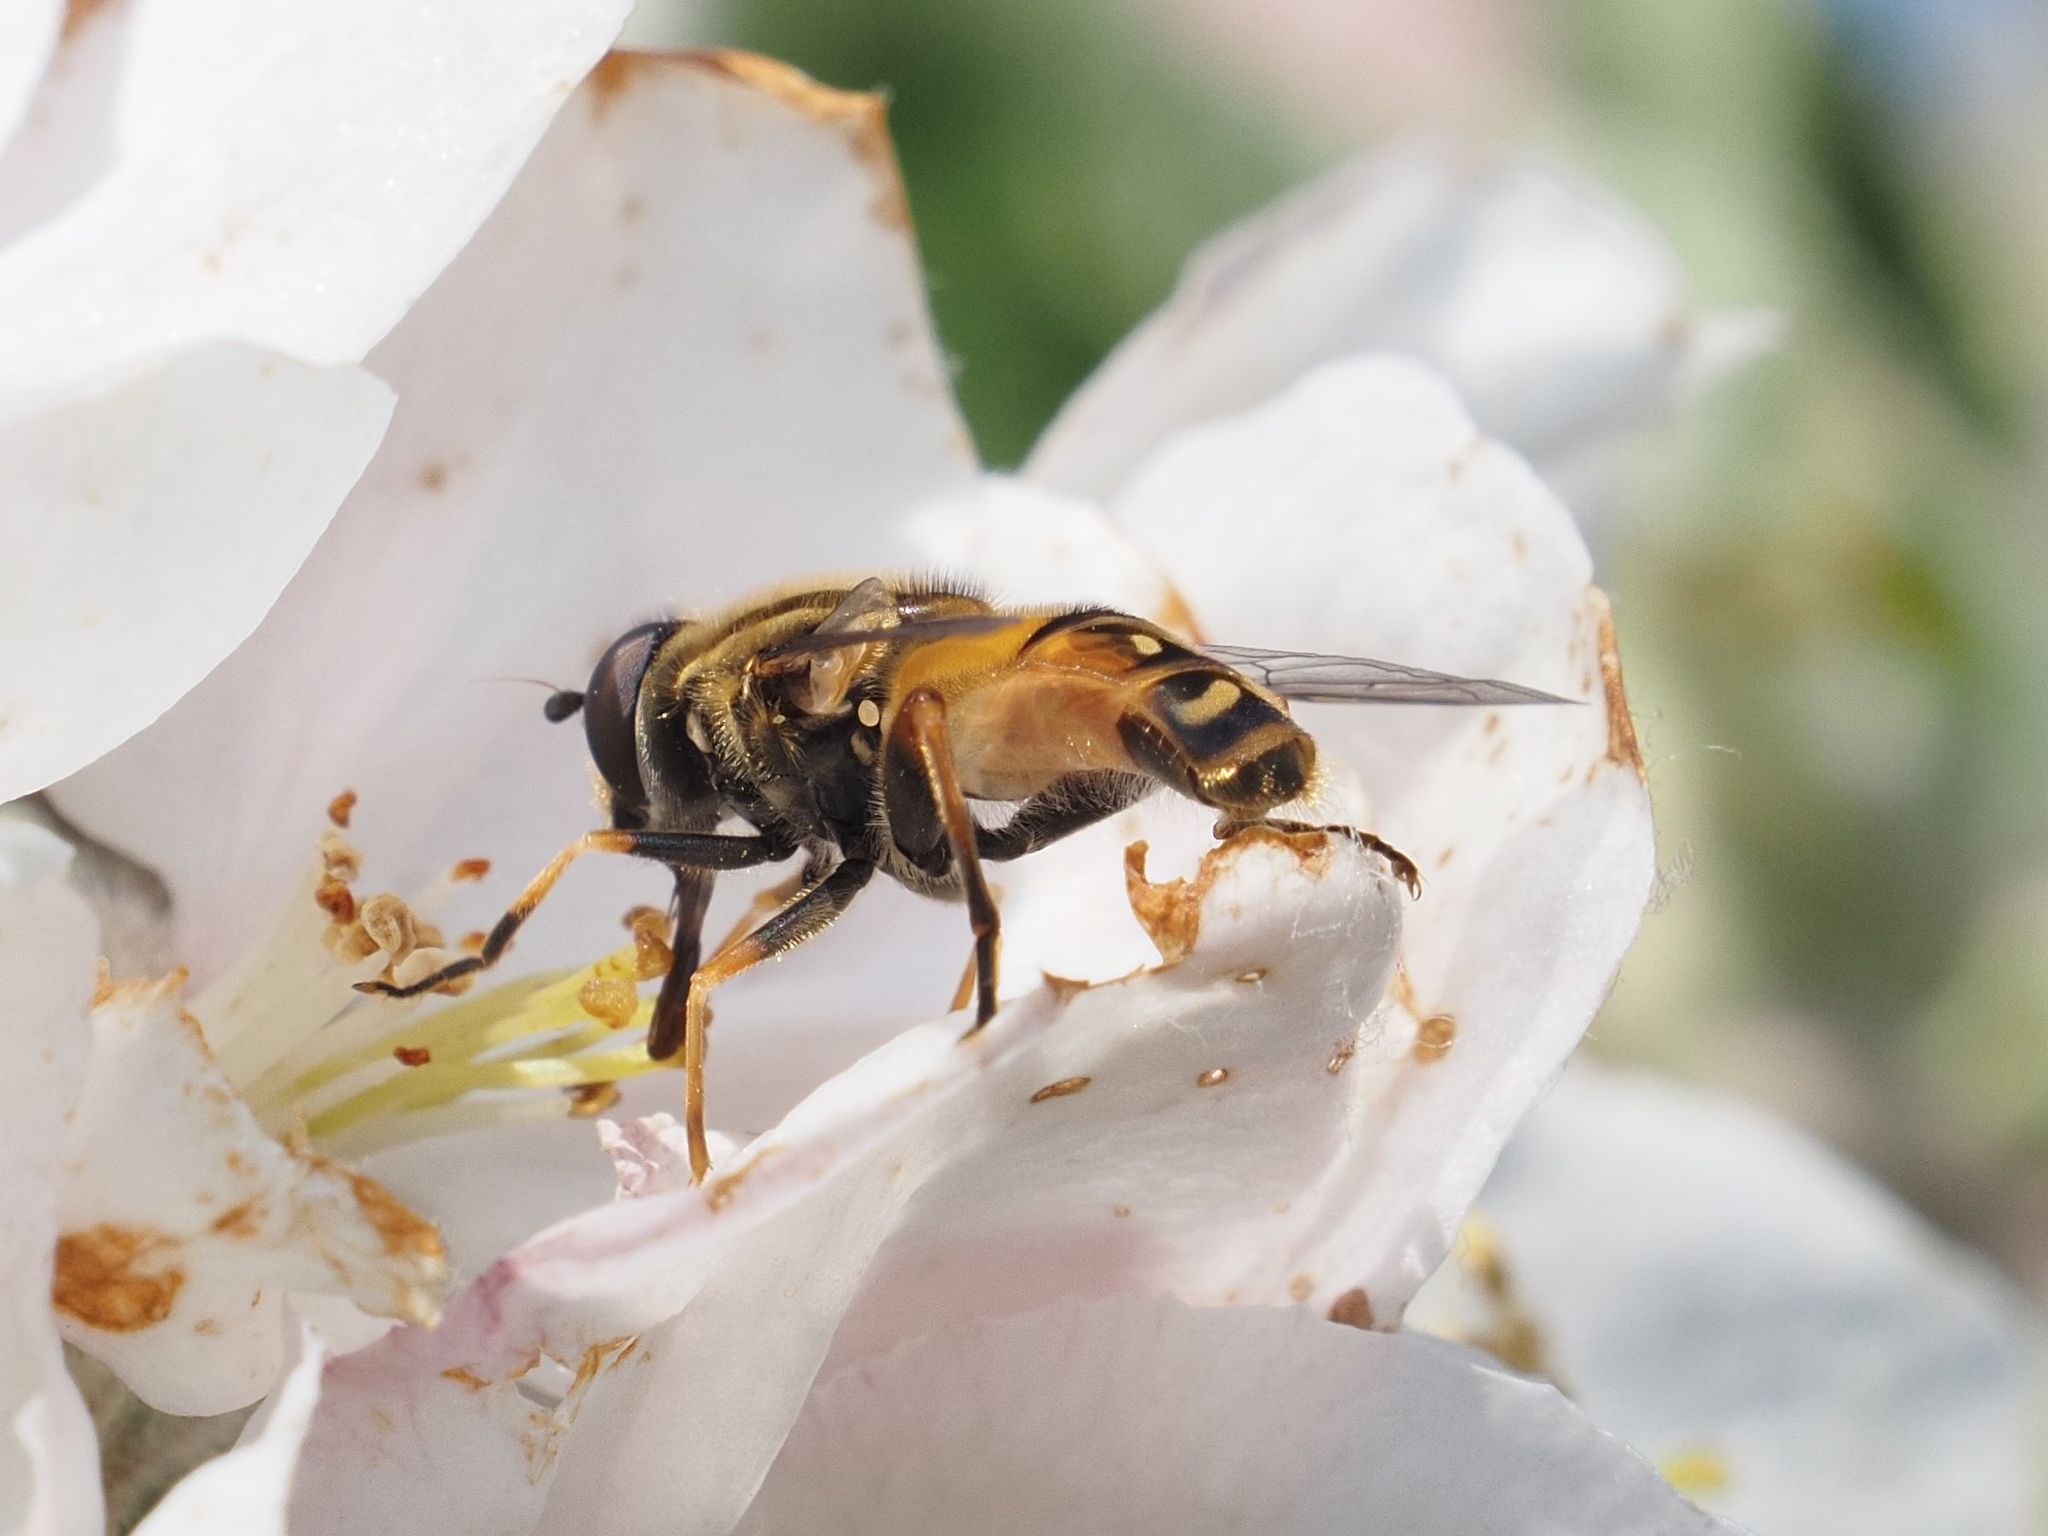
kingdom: Animalia
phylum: Arthropoda
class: Insecta
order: Diptera
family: Syrphidae
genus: Helophilus
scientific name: Helophilus pendulus
